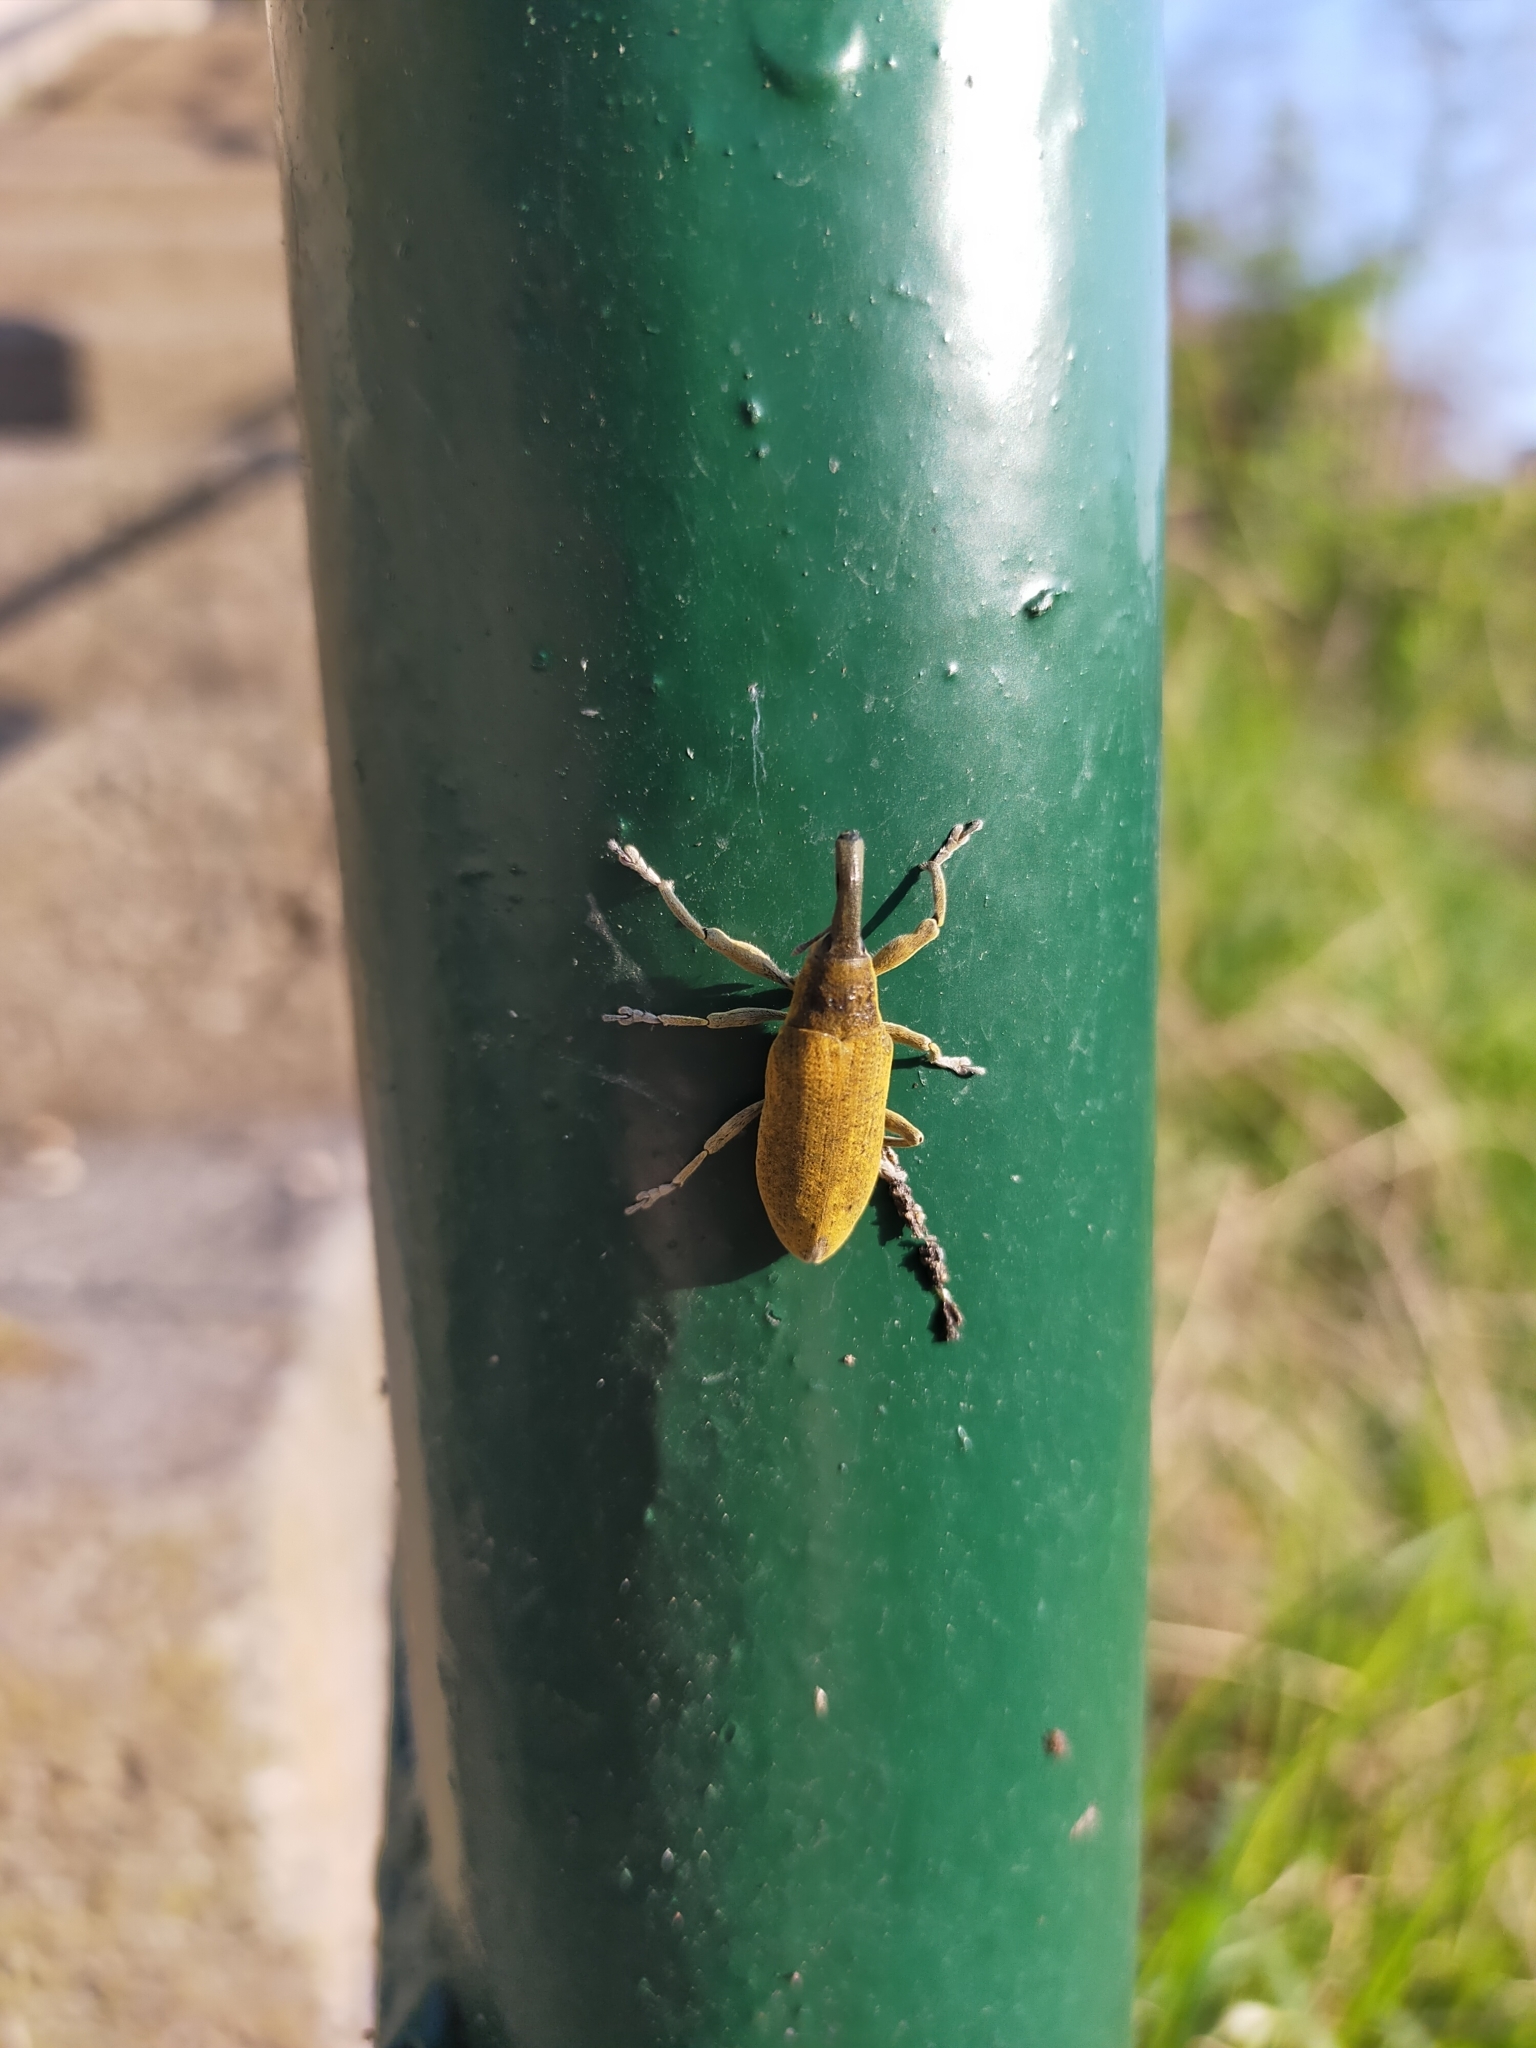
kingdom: Animalia
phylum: Arthropoda
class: Insecta
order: Coleoptera
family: Curculionidae
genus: Lixus
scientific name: Lixus pulverulentus
